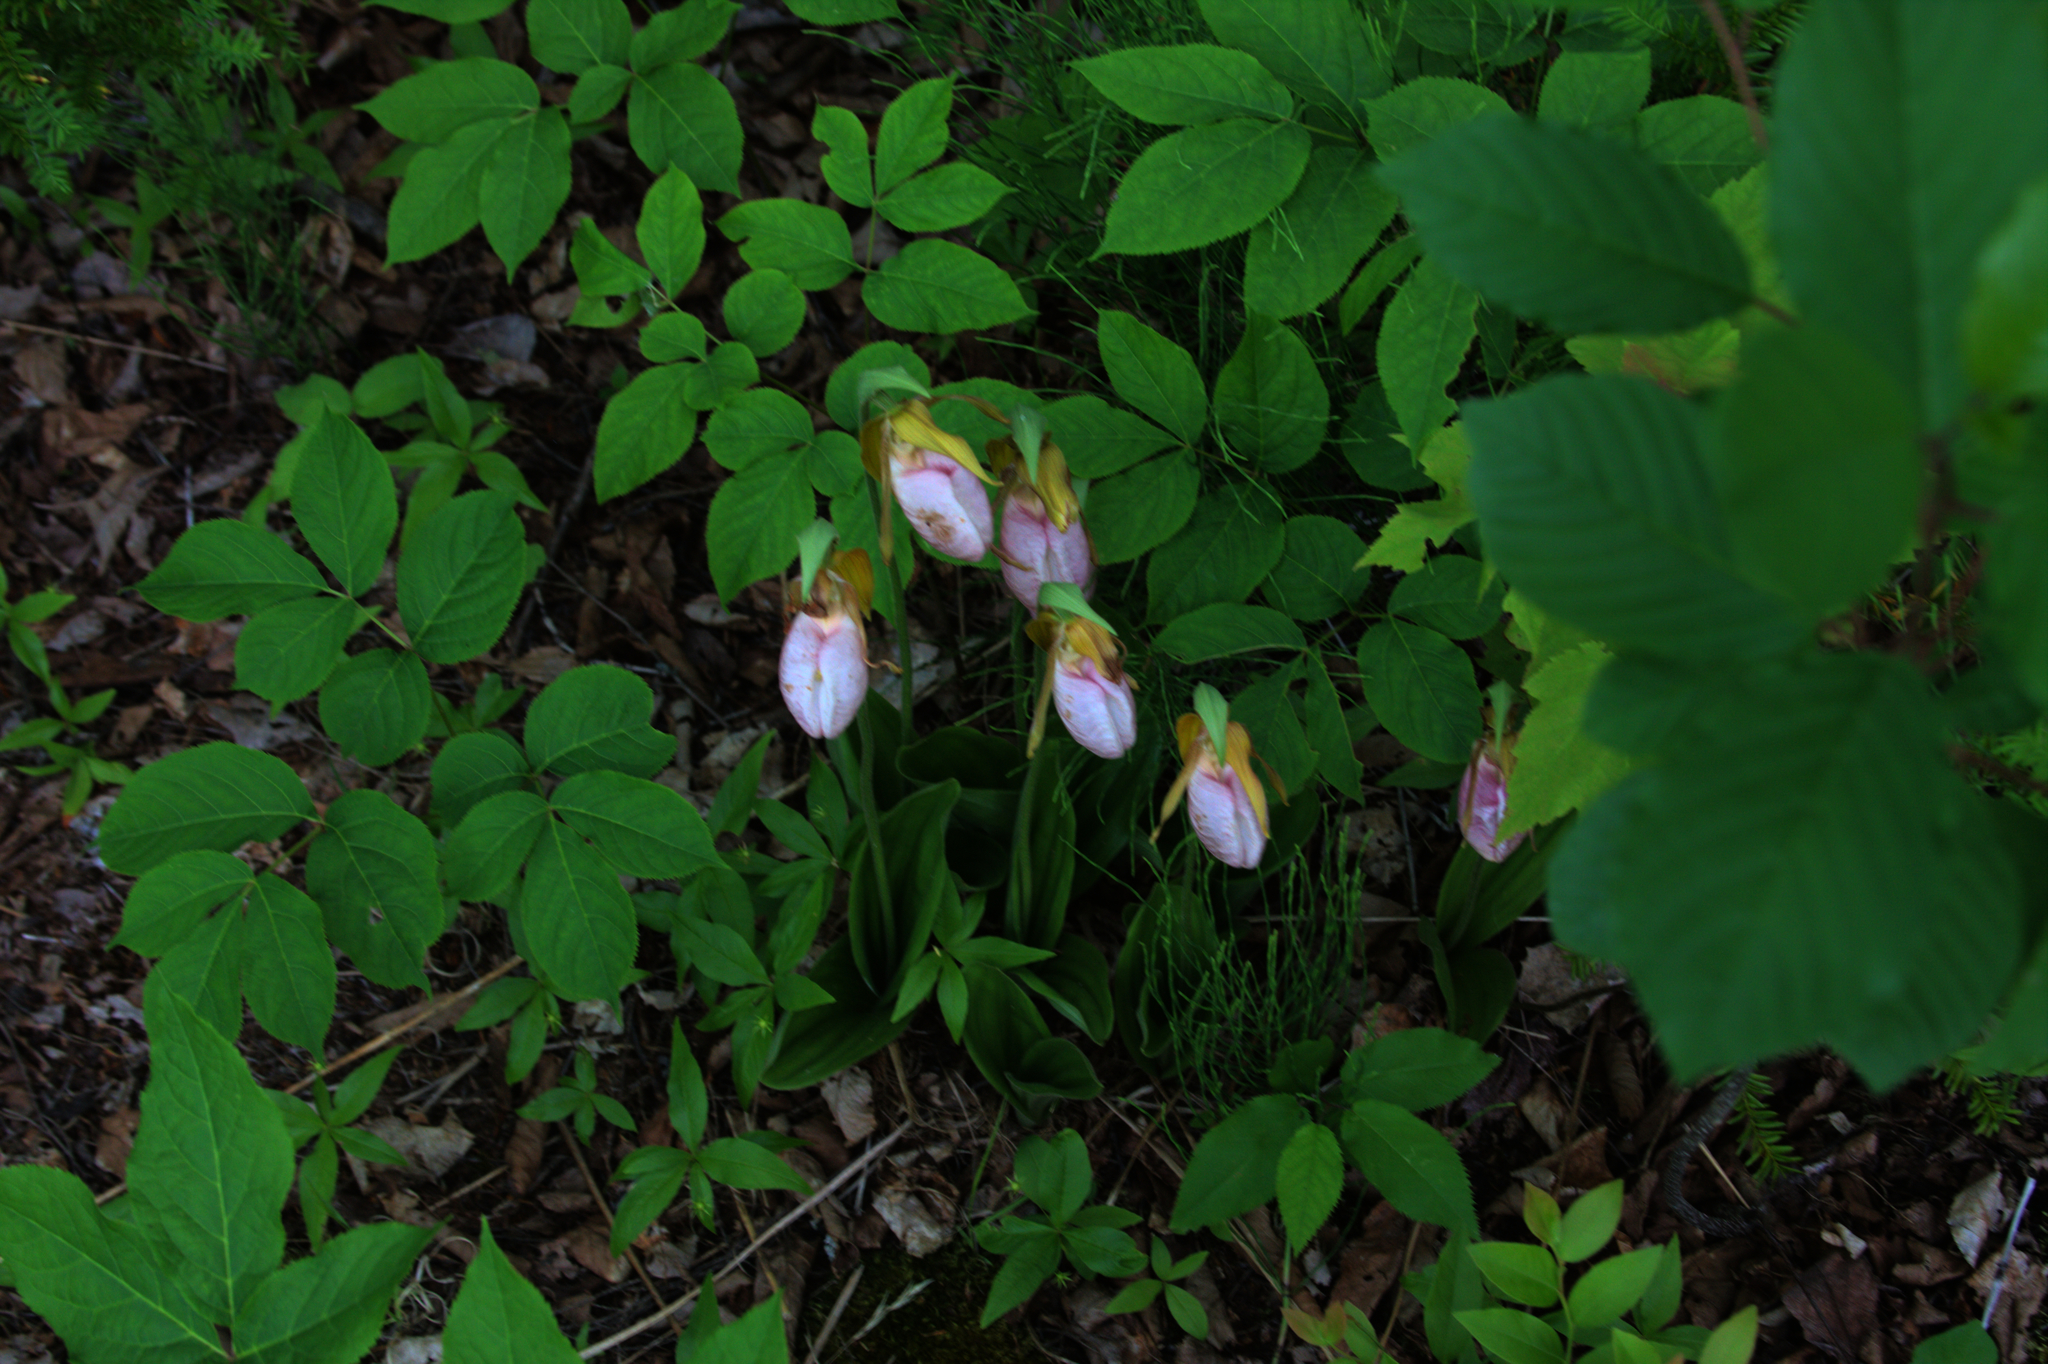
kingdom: Plantae
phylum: Tracheophyta
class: Magnoliopsida
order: Apiales
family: Araliaceae
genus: Aralia
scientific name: Aralia nudicaulis
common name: Wild sarsaparilla
